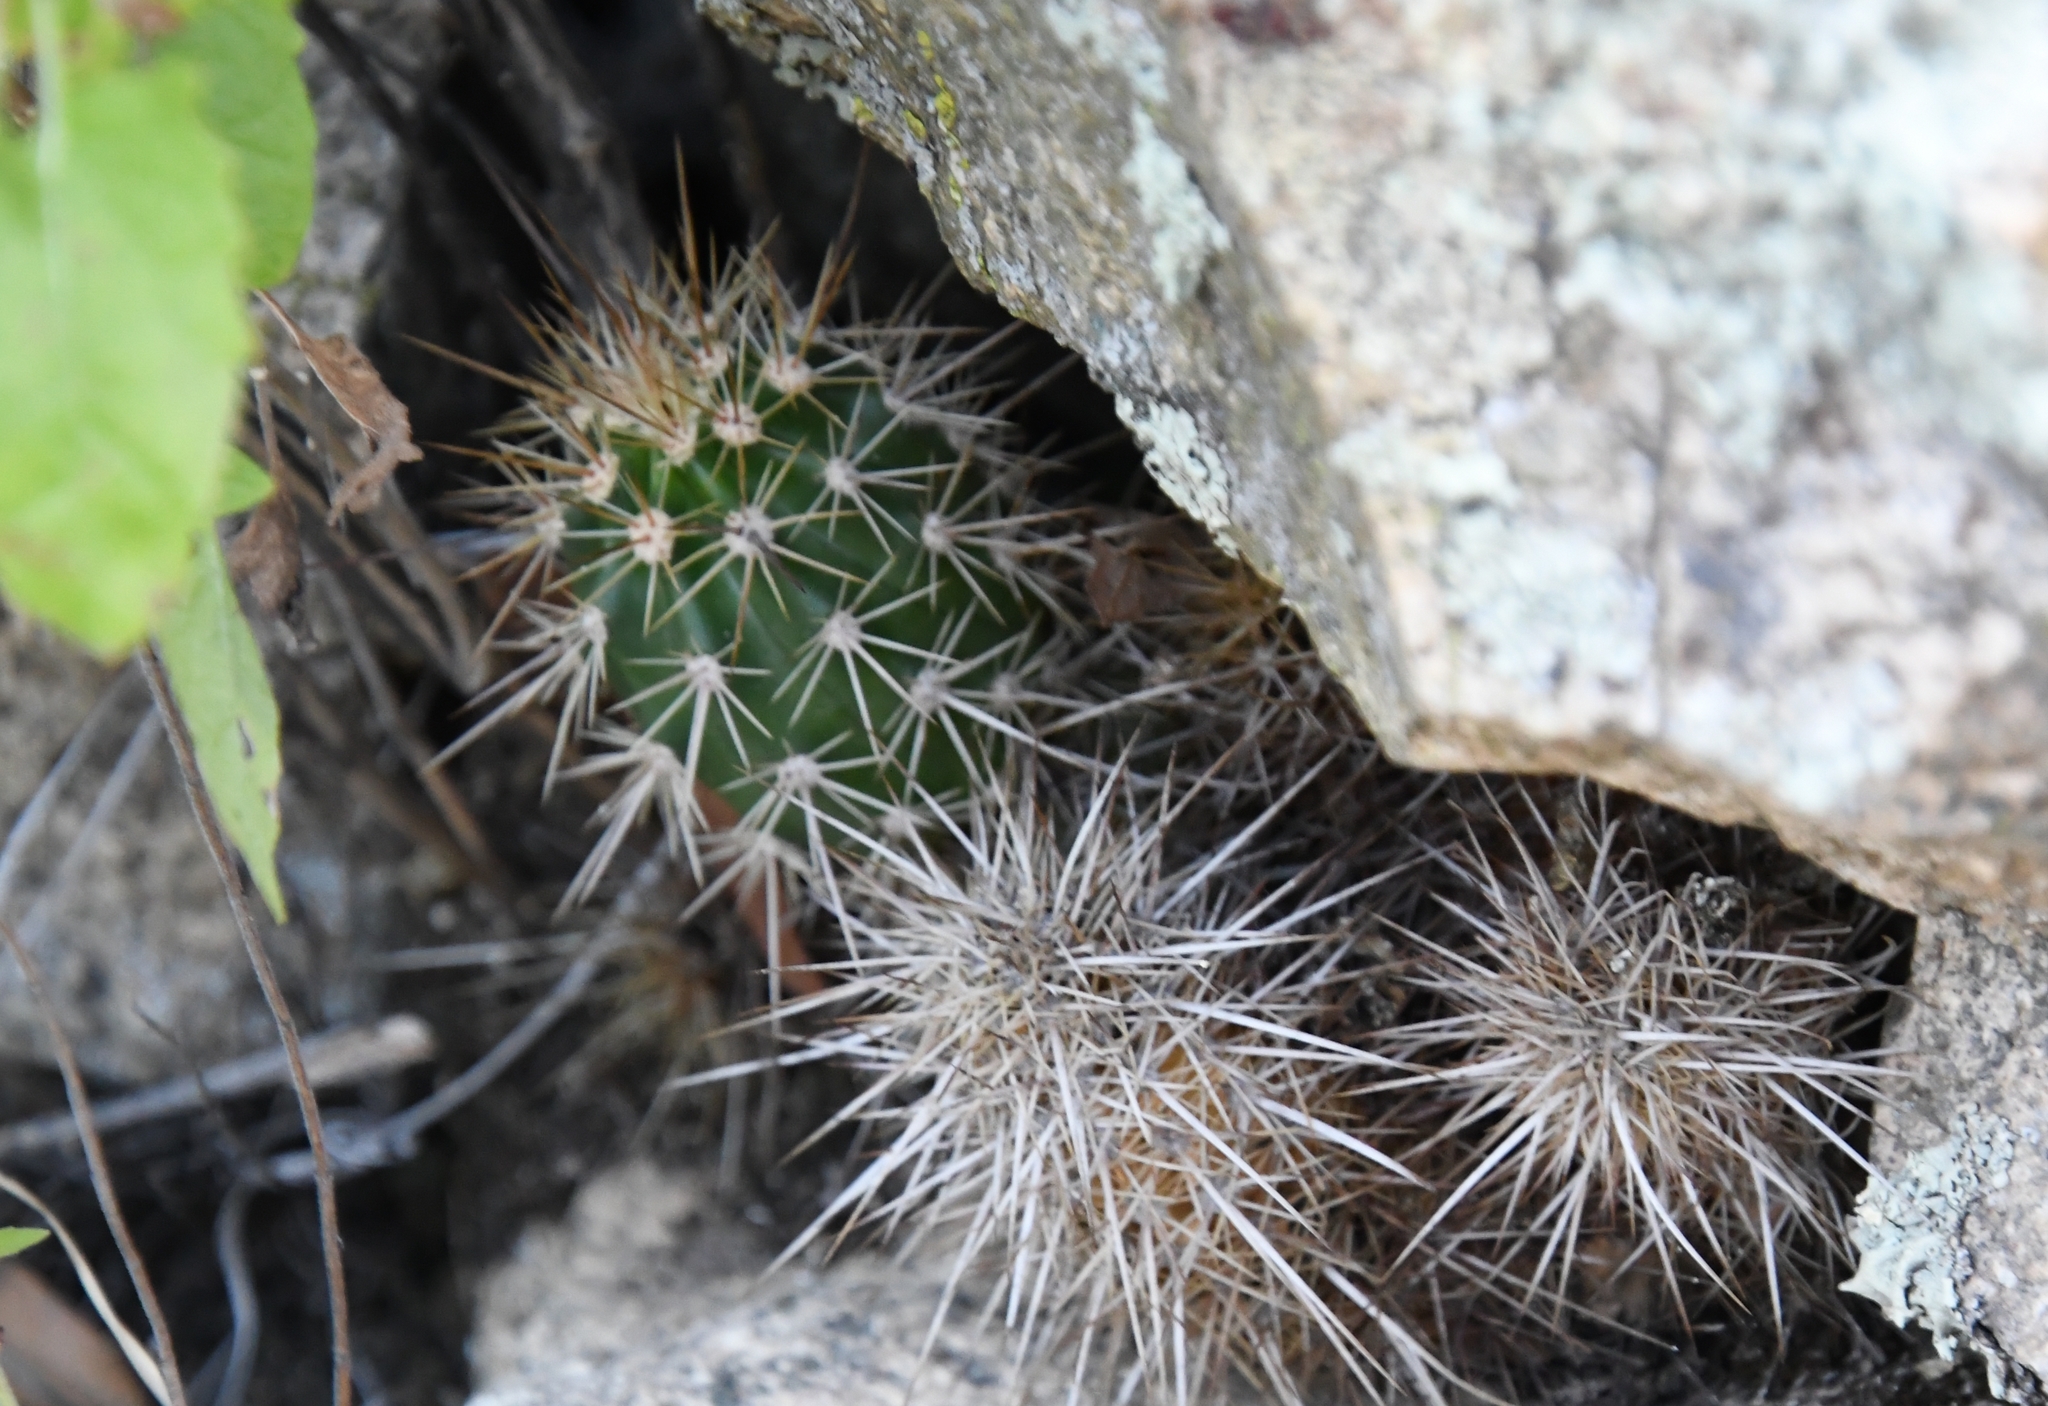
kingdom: Plantae
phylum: Tracheophyta
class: Magnoliopsida
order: Caryophyllales
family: Cactaceae
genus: Echinocereus
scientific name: Echinocereus coccineus
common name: Scarlet hedgehog cactus
